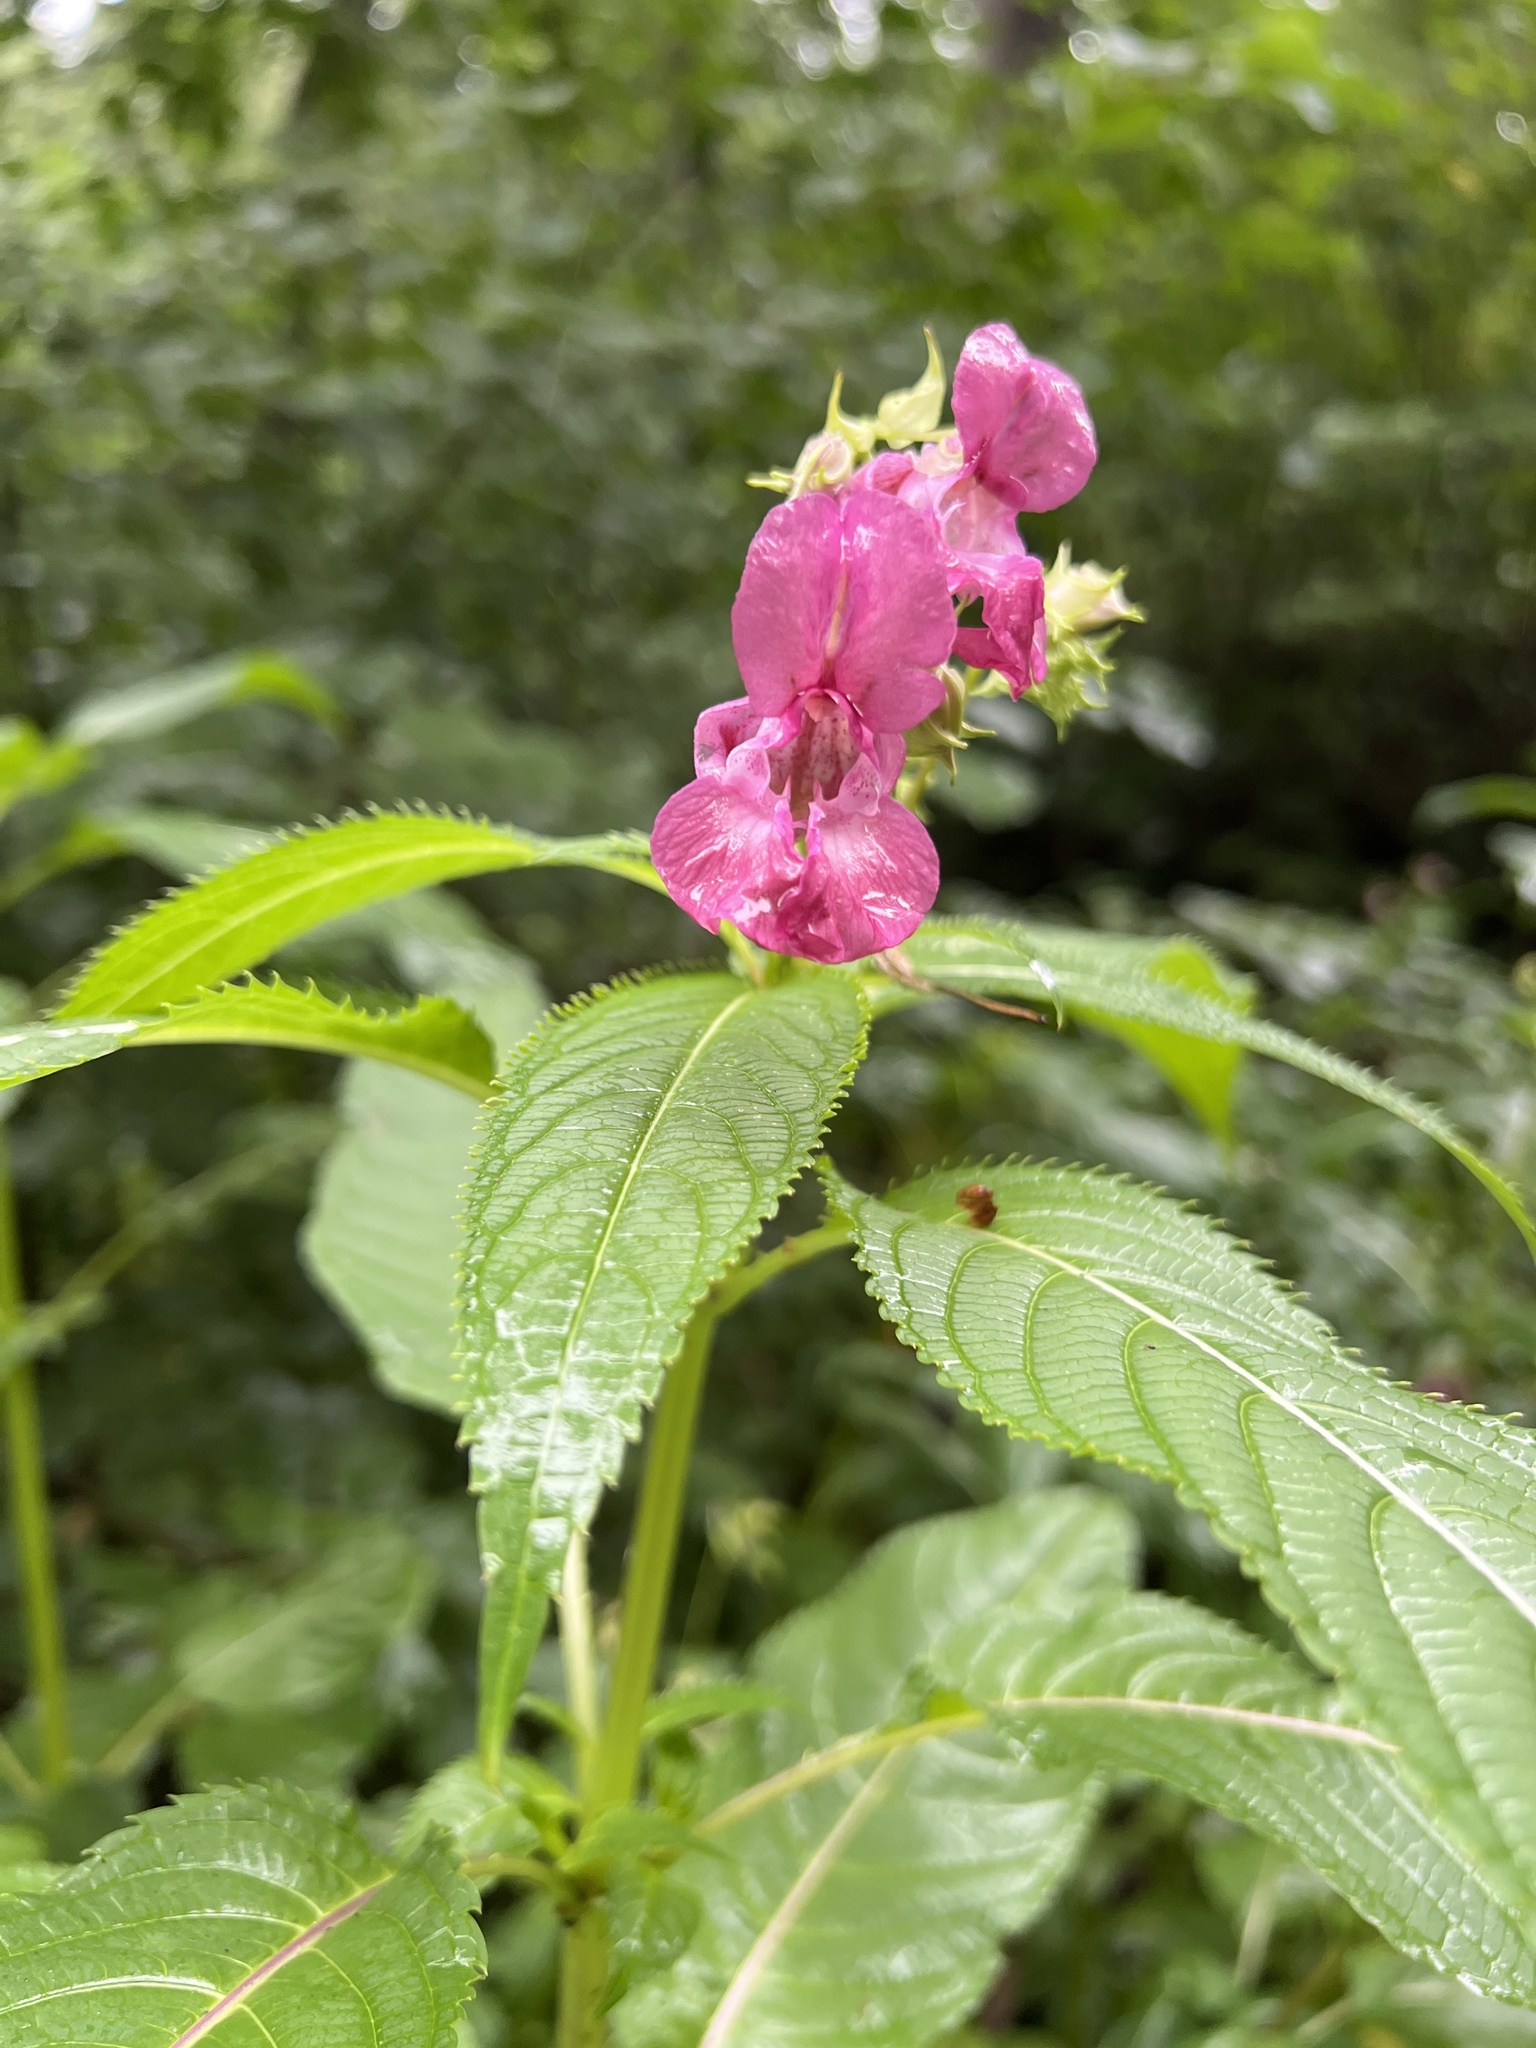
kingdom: Plantae
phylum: Tracheophyta
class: Magnoliopsida
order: Ericales
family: Balsaminaceae
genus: Impatiens
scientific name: Impatiens glandulifera
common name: Himalayan balsam
